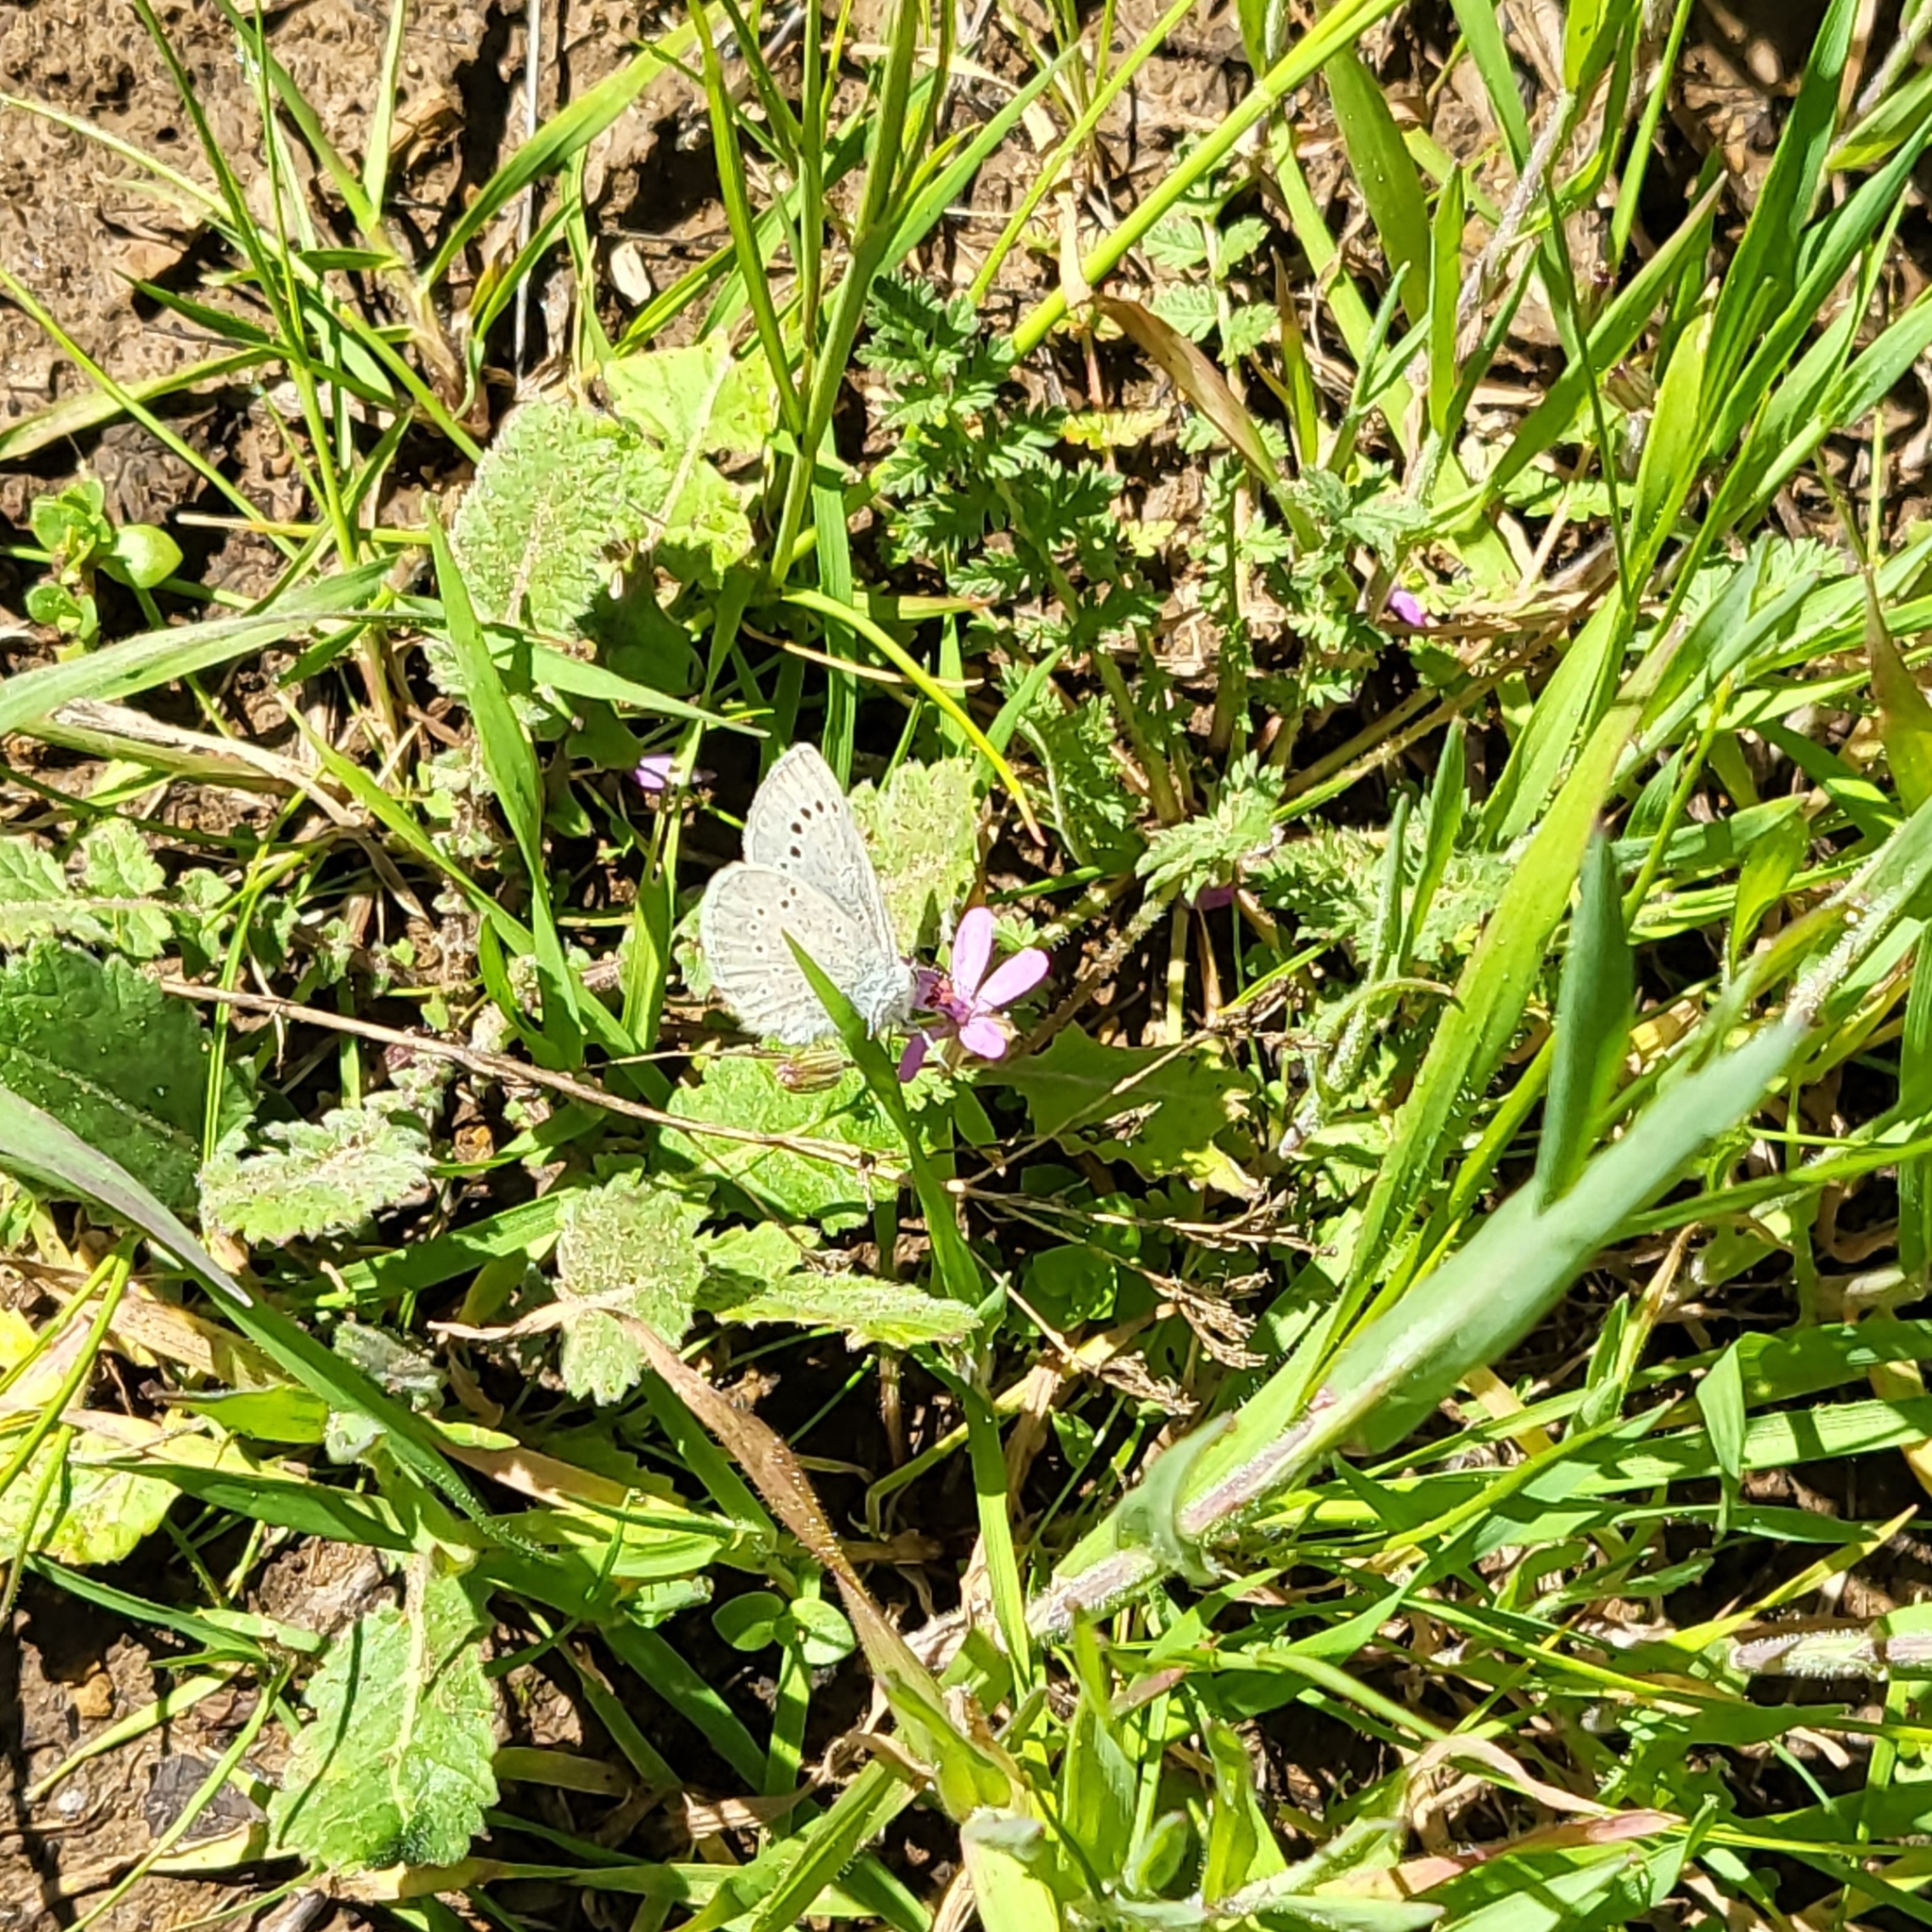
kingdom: Animalia
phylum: Arthropoda
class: Insecta
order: Lepidoptera
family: Lycaenidae
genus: Glaucopsyche
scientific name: Glaucopsyche lygdamus
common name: Silvery blue
